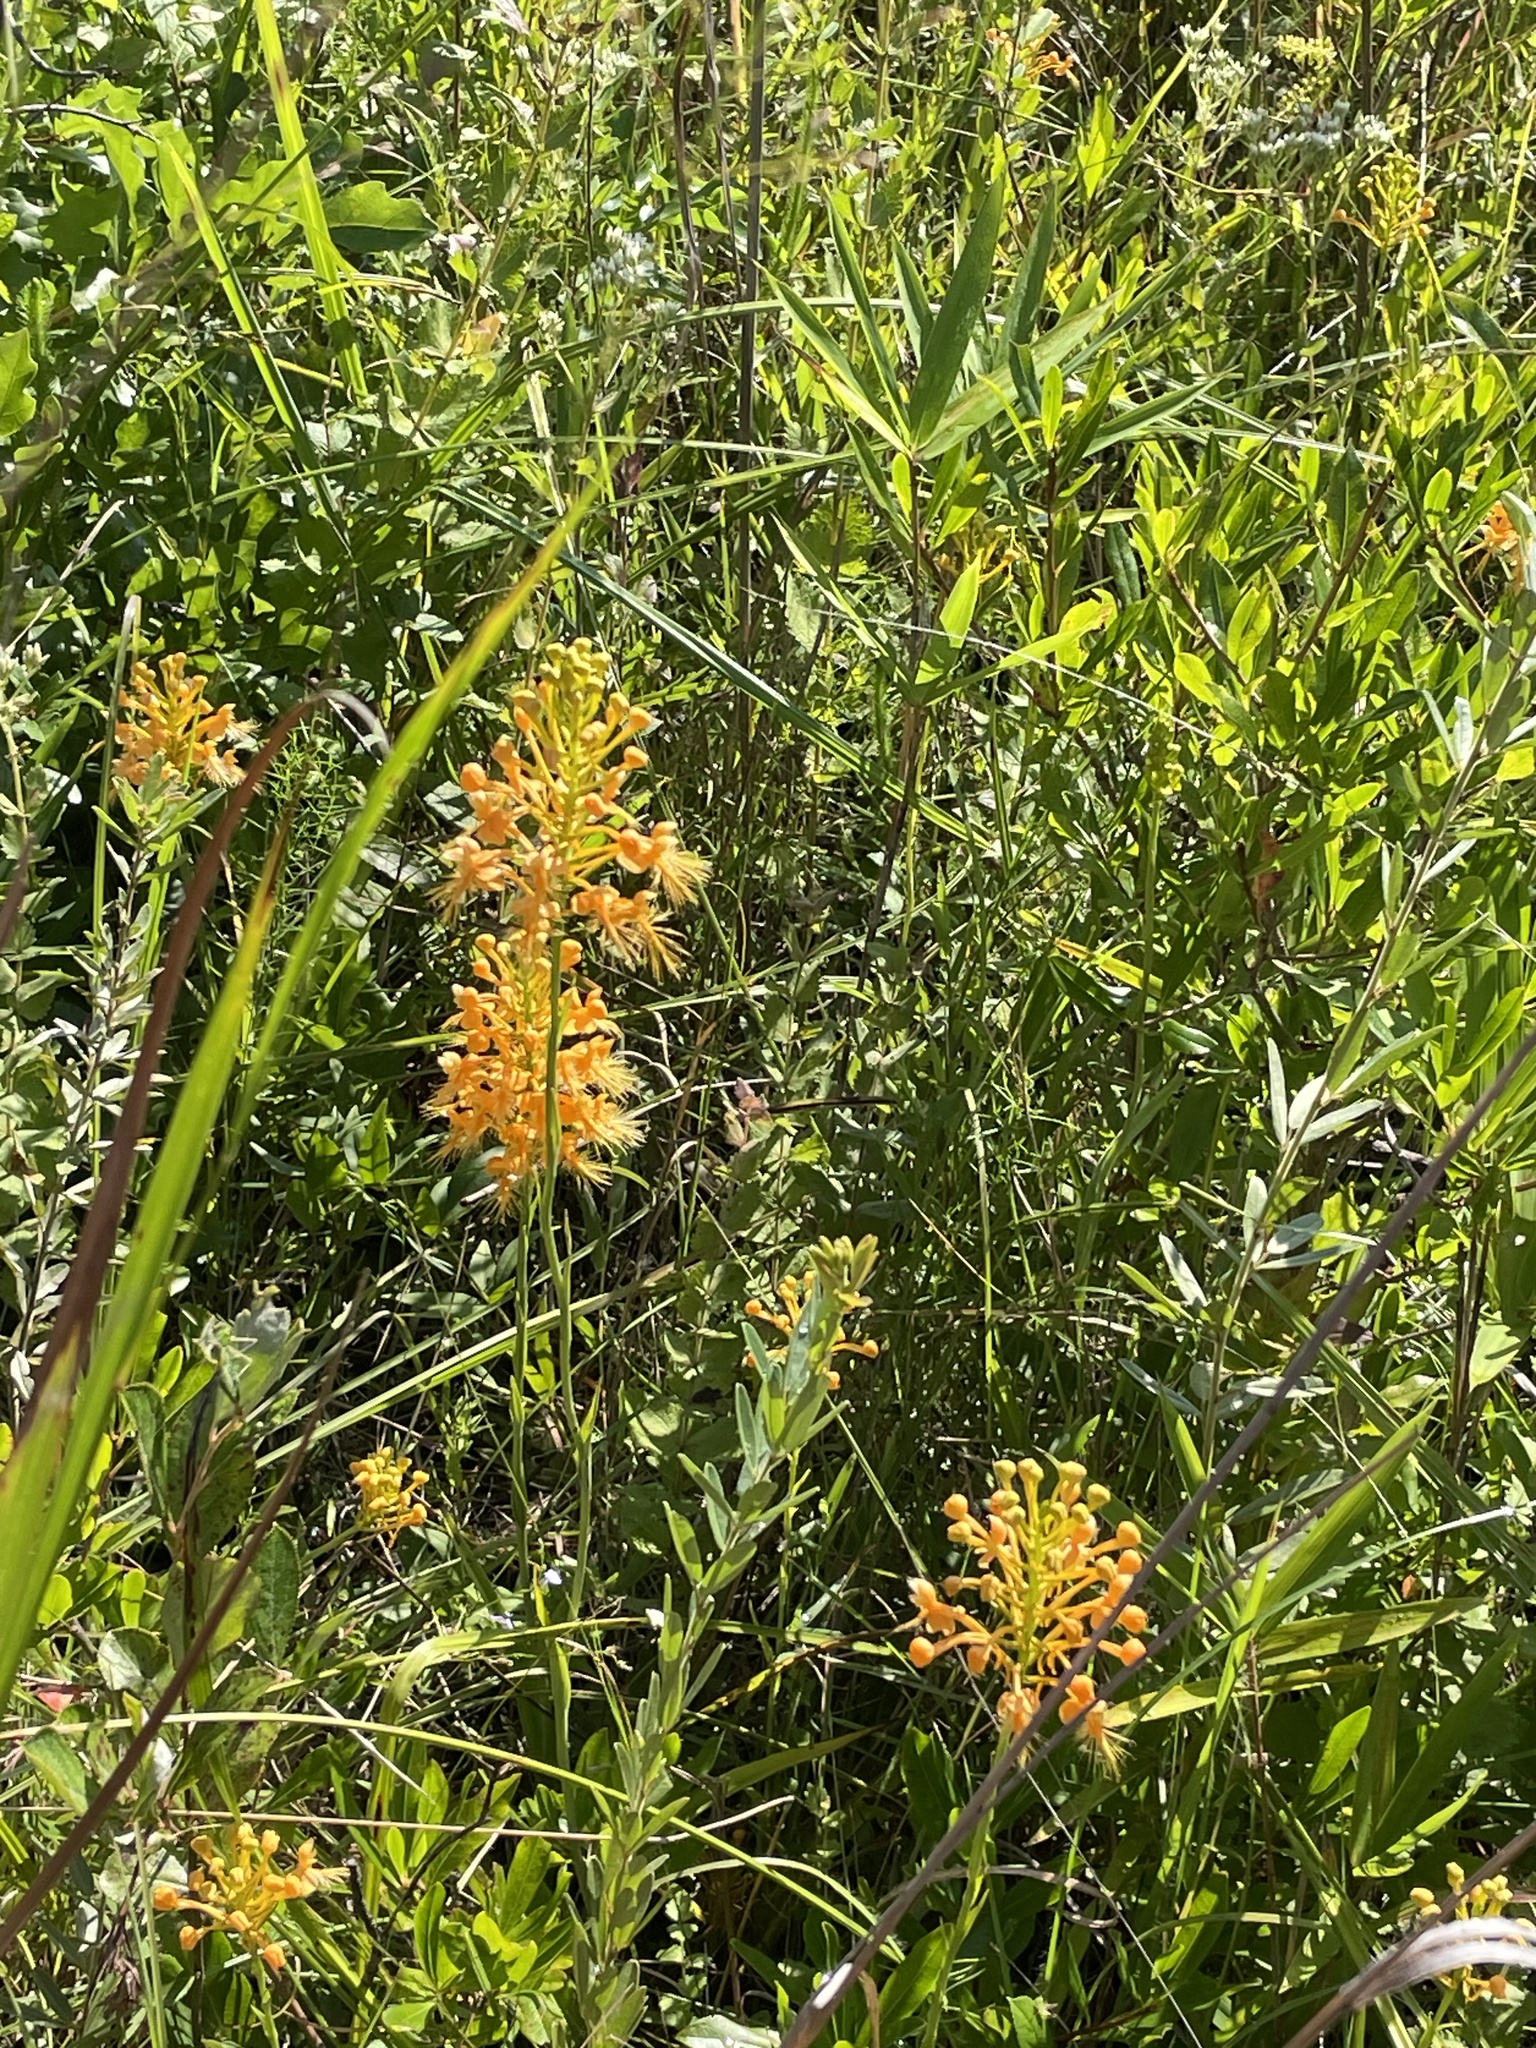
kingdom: Plantae
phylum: Tracheophyta
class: Liliopsida
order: Asparagales
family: Orchidaceae
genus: Platanthera
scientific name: Platanthera ciliaris
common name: Yellow fringed orchid
